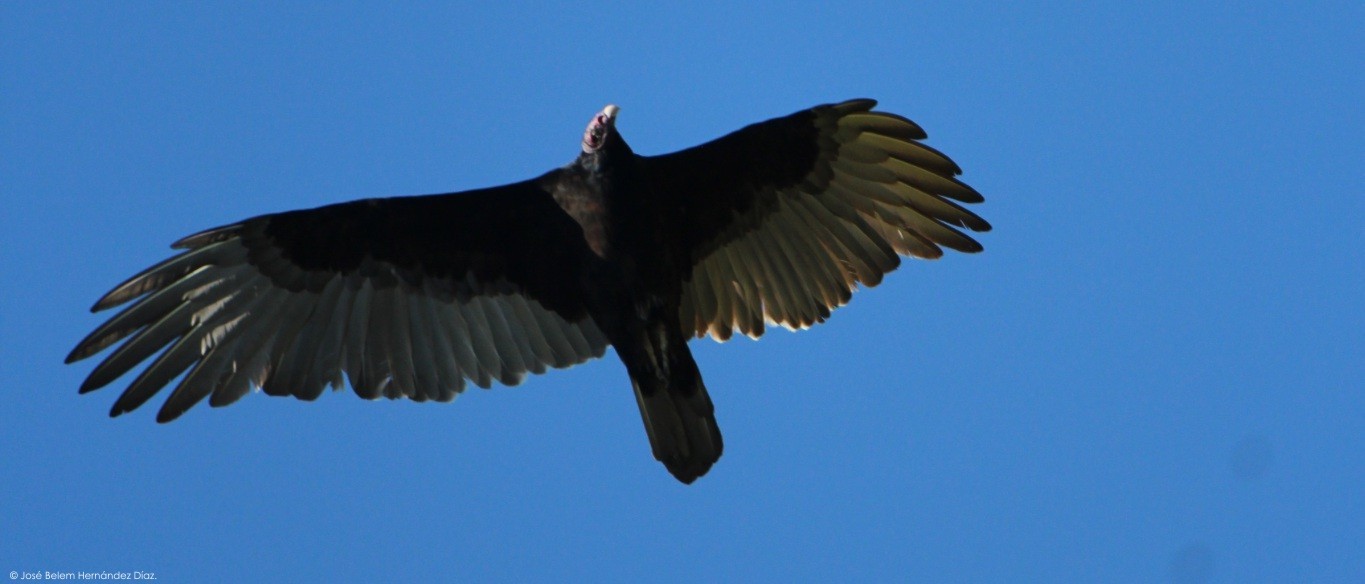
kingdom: Animalia
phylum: Chordata
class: Aves
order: Accipitriformes
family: Cathartidae
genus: Cathartes
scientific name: Cathartes aura
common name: Turkey vulture
